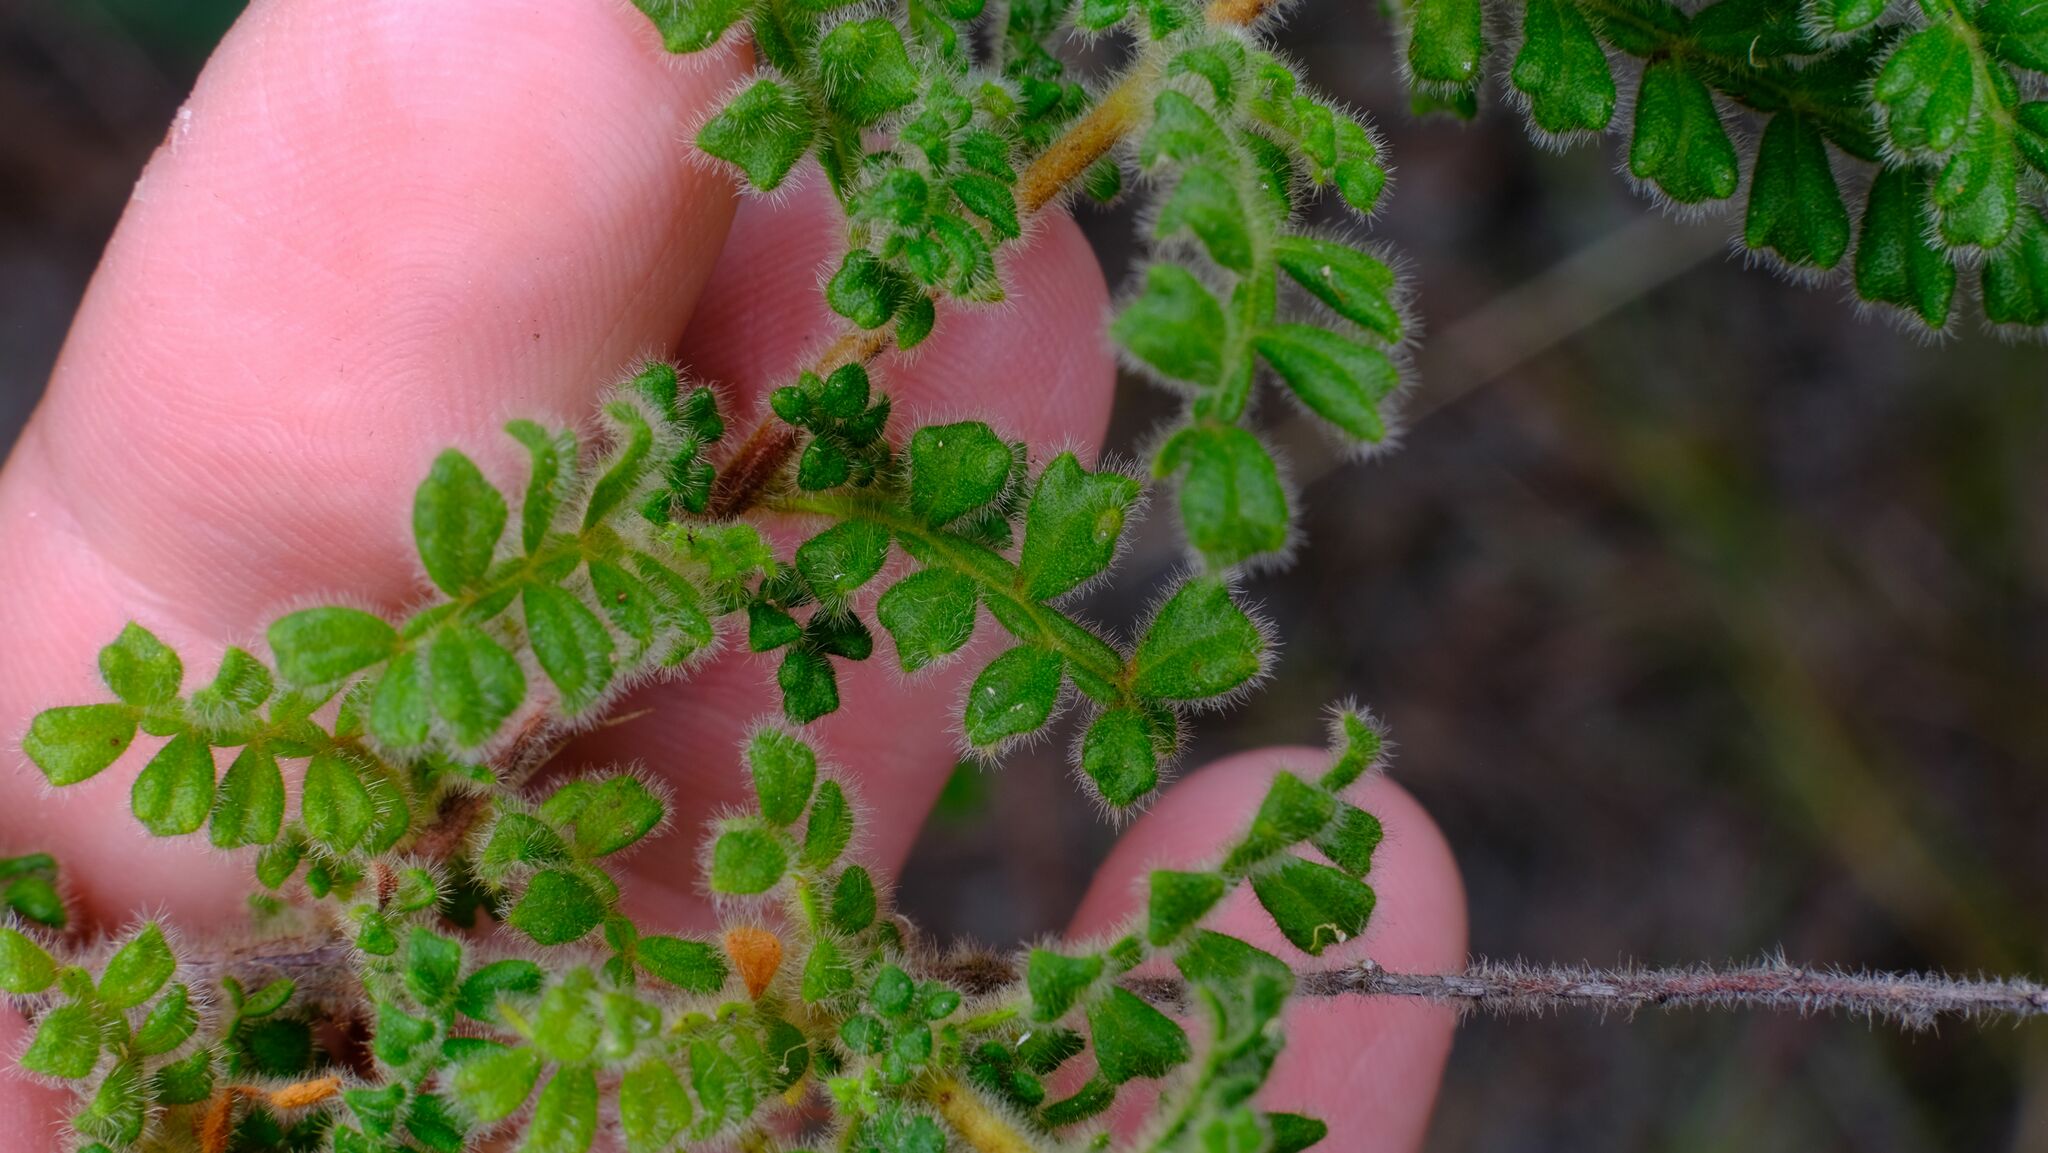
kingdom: Plantae
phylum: Tracheophyta
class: Magnoliopsida
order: Sapindales
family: Sapindaceae
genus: Dodonaea
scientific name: Dodonaea rupicola
